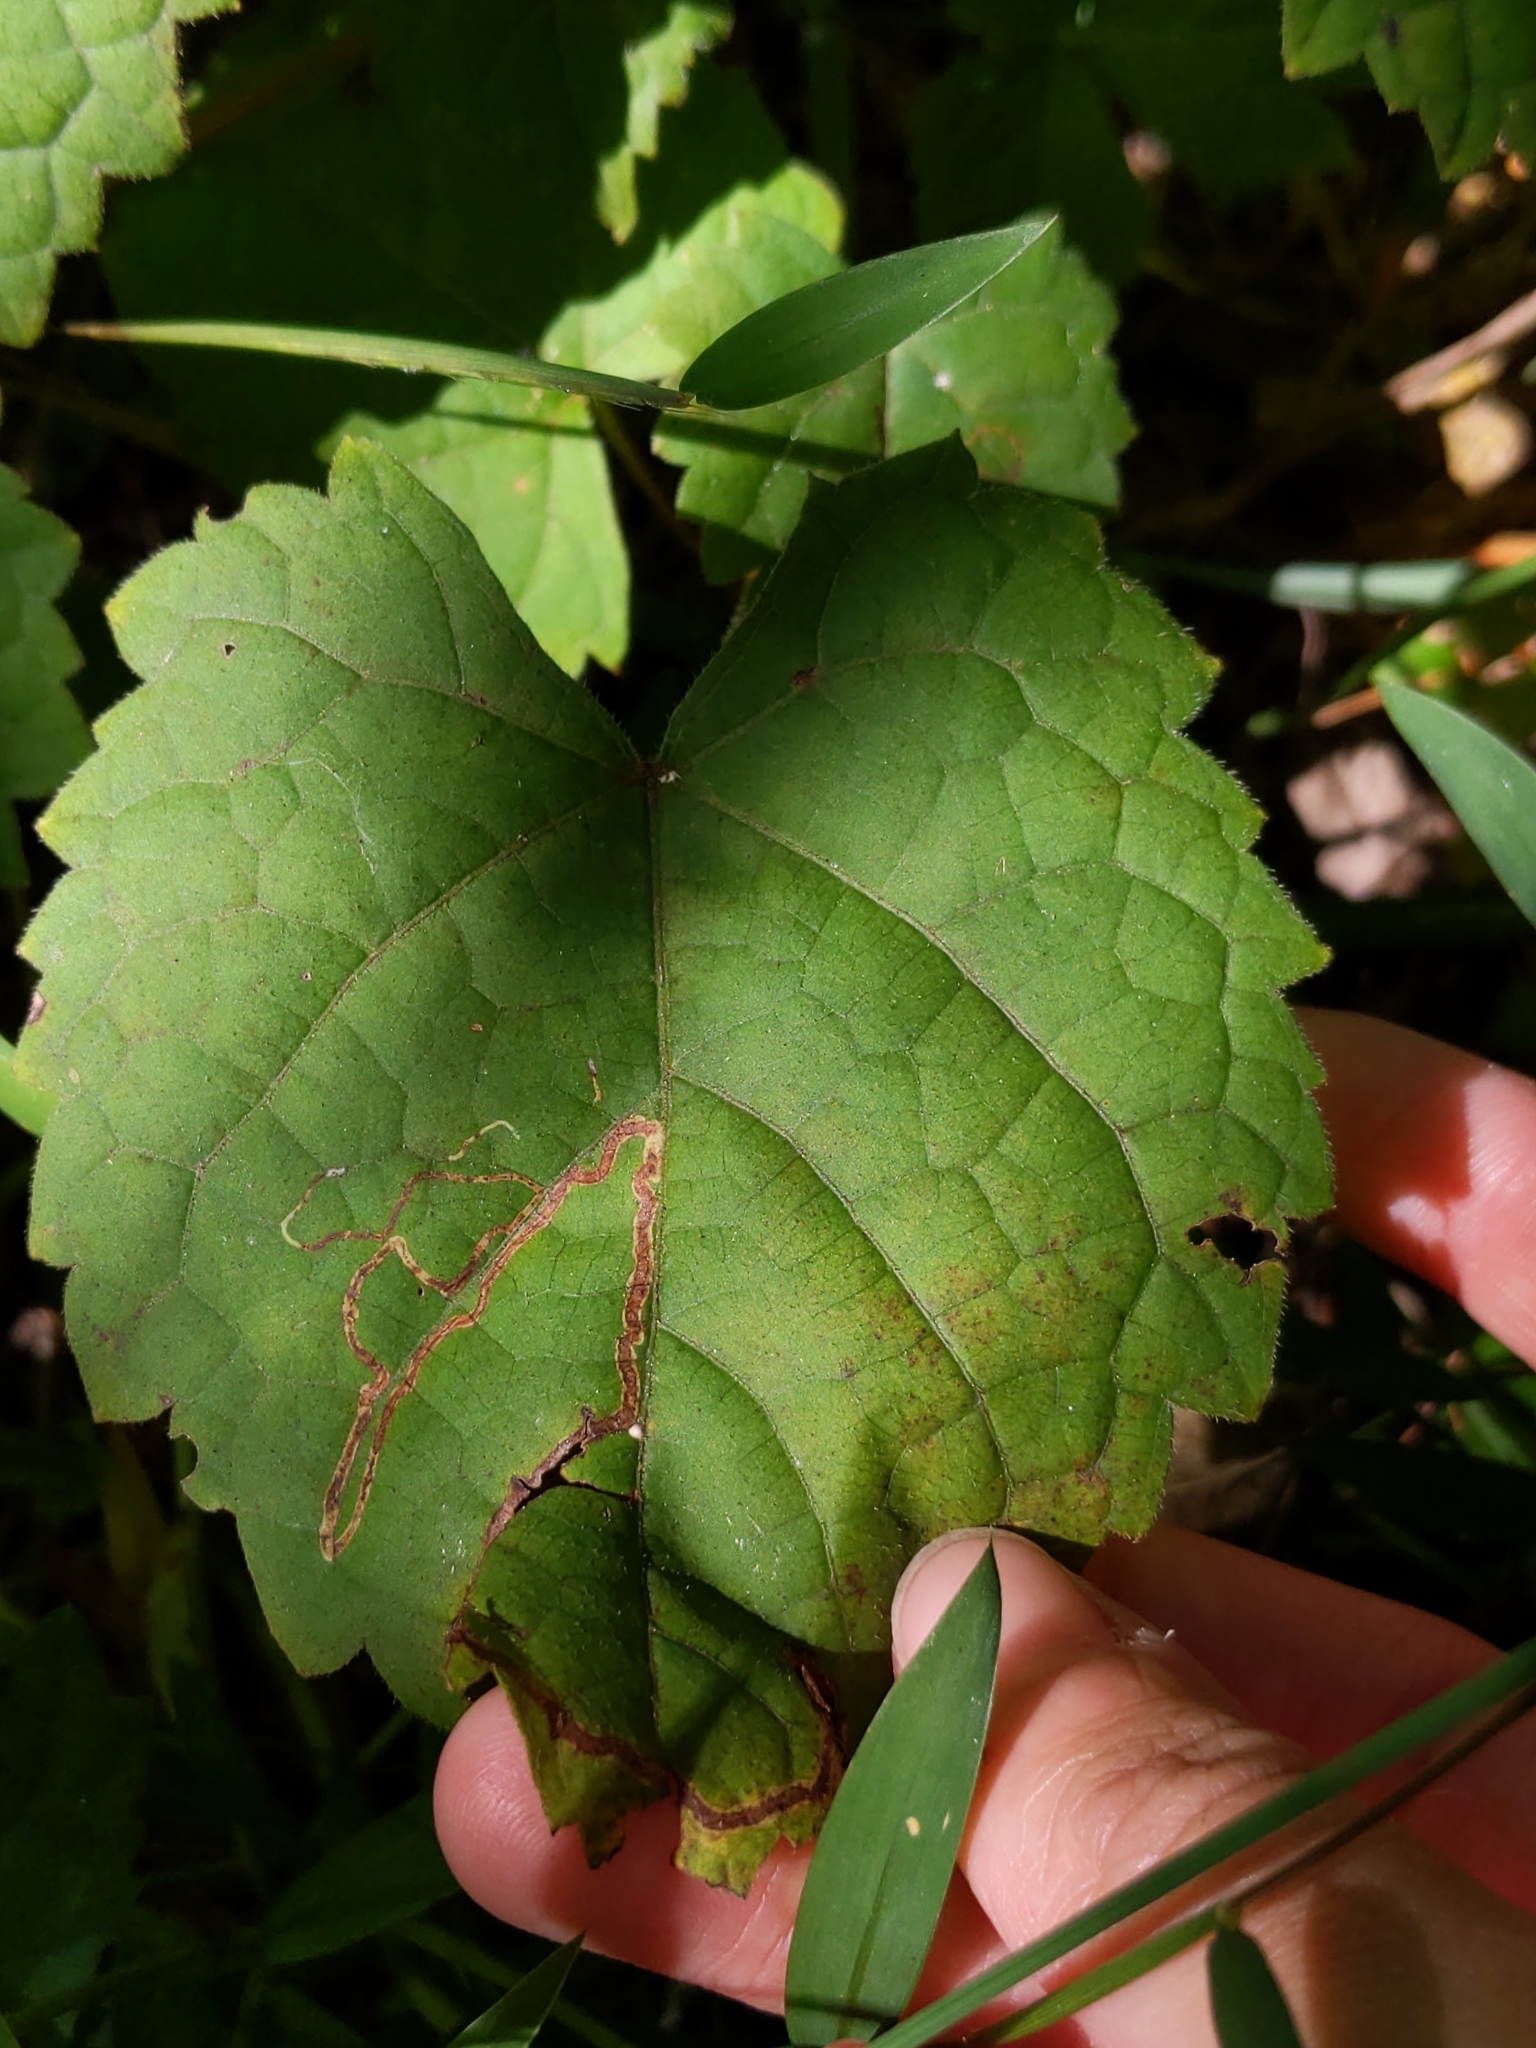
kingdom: Animalia
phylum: Arthropoda
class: Insecta
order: Lepidoptera
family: Gracillariidae
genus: Phyllocnistis
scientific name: Phyllocnistis vitifoliella
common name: Grape leaf-miner moth
